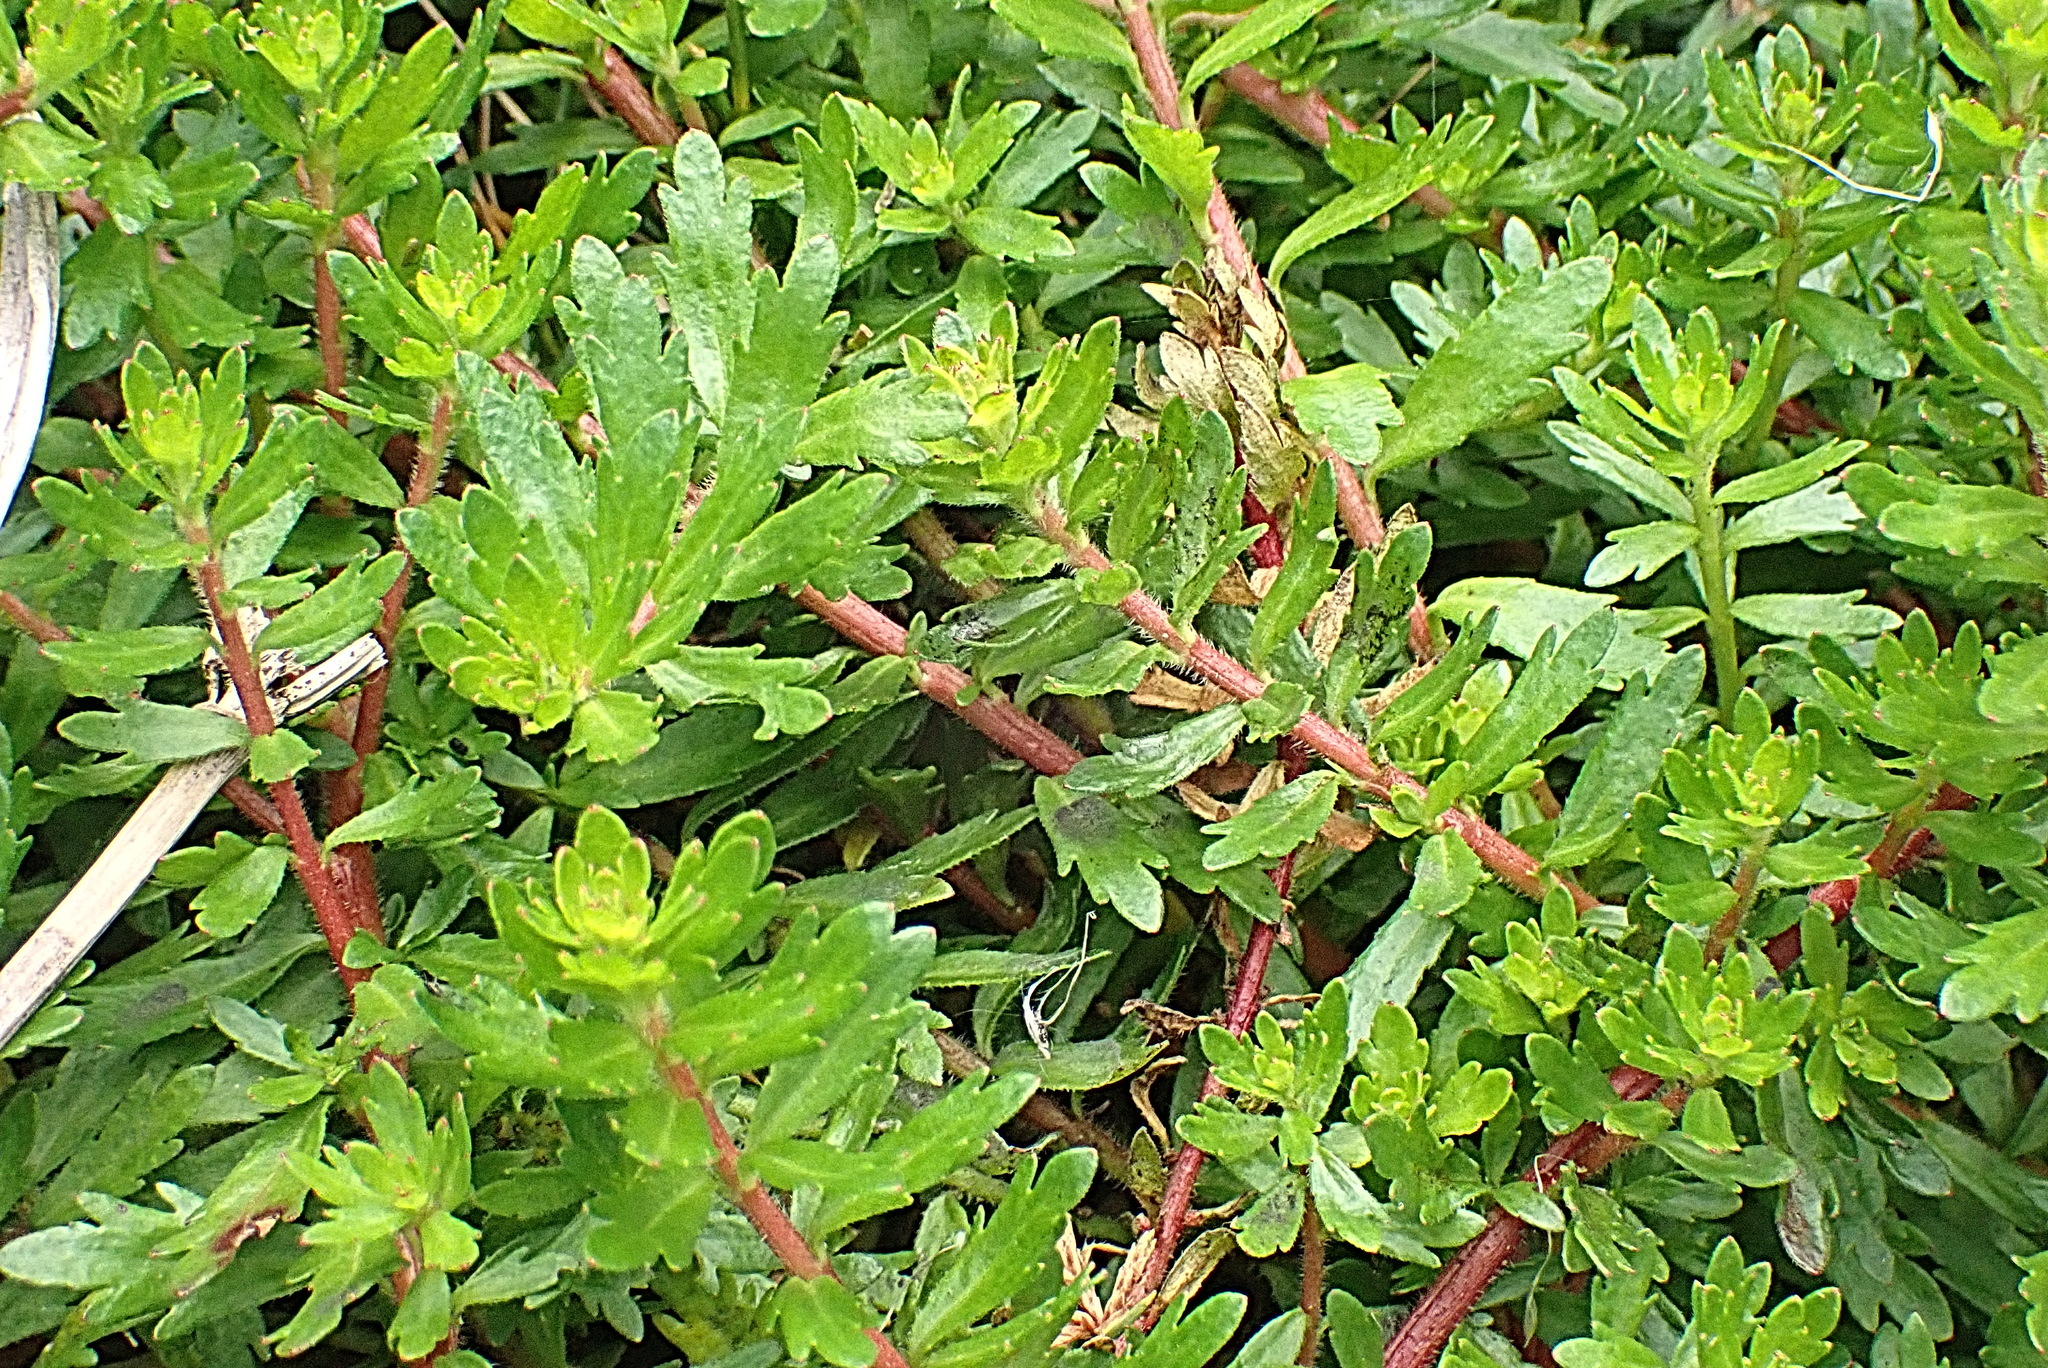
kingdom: Plantae
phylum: Tracheophyta
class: Magnoliopsida
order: Saxifragales
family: Haloragaceae
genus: Laurembergia
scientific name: Laurembergia repens
